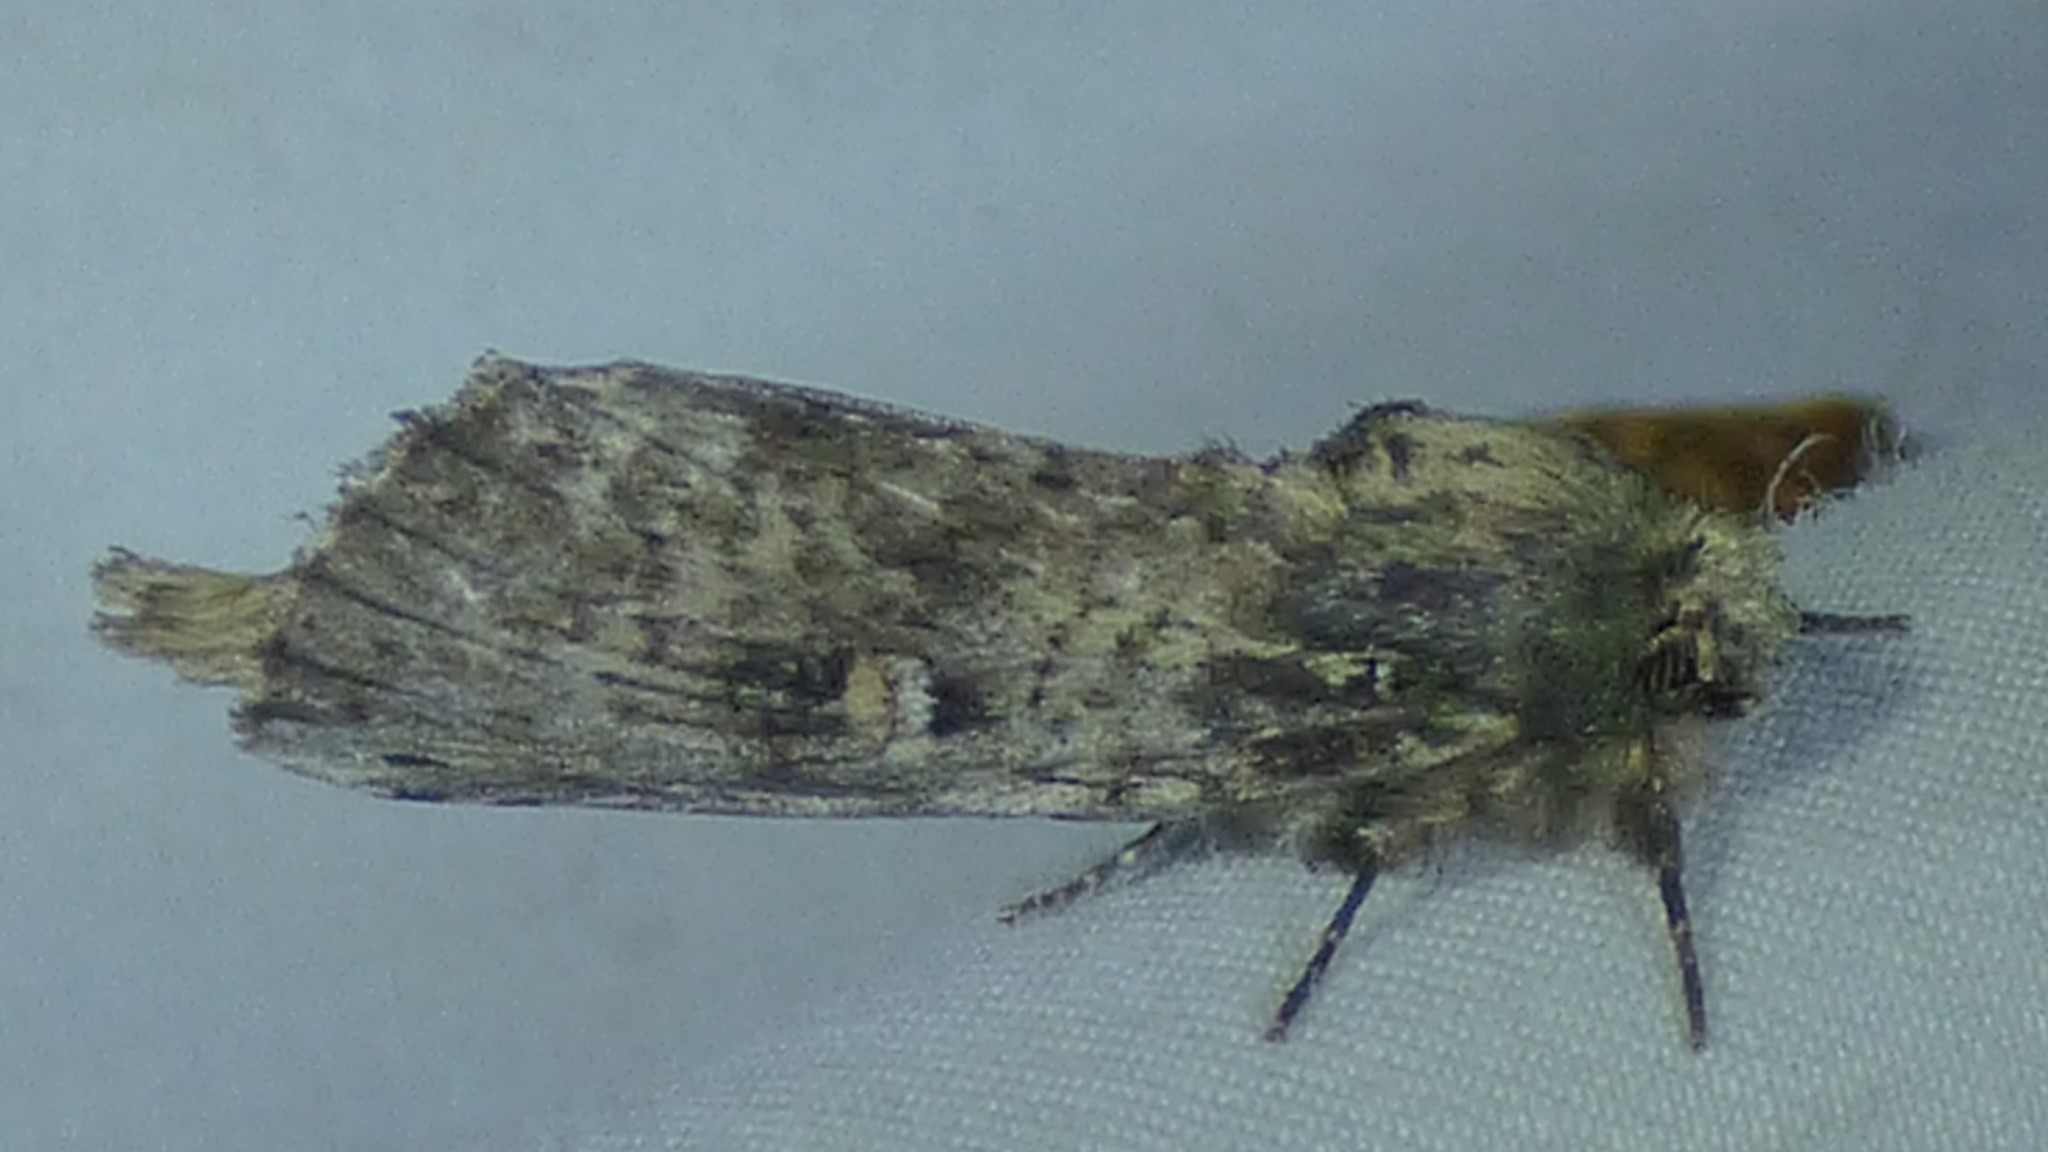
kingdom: Animalia
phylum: Arthropoda
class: Insecta
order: Lepidoptera
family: Notodontidae
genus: Schizura
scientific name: Schizura ipomaeae
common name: Morning-glory prominent
